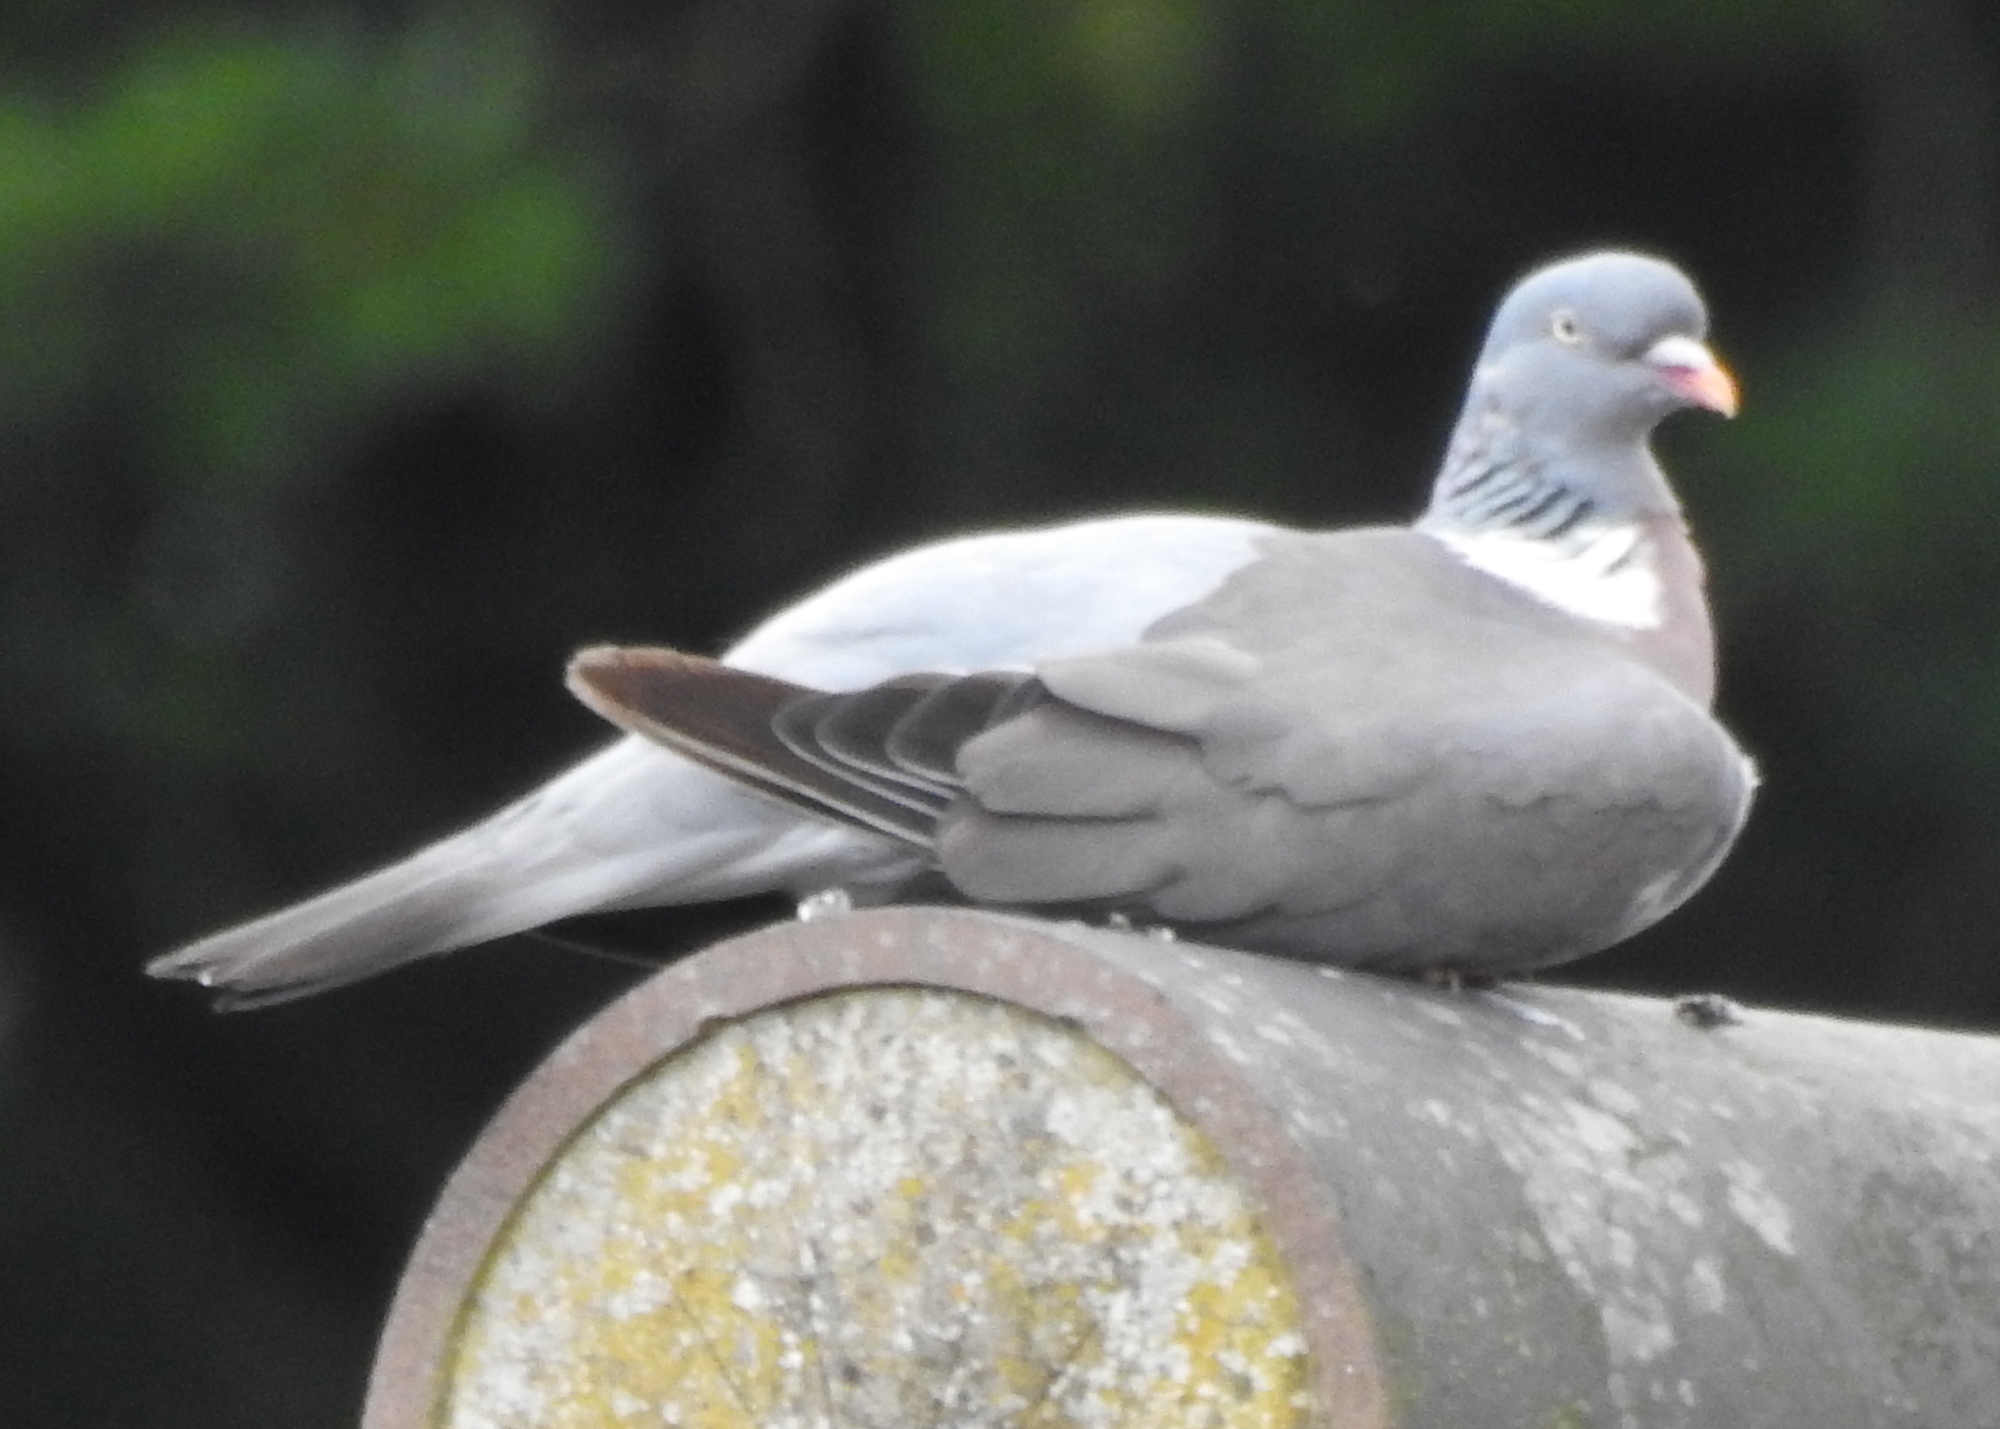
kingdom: Animalia
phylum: Chordata
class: Aves
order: Columbiformes
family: Columbidae
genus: Columba
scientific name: Columba palumbus
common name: Common wood pigeon
